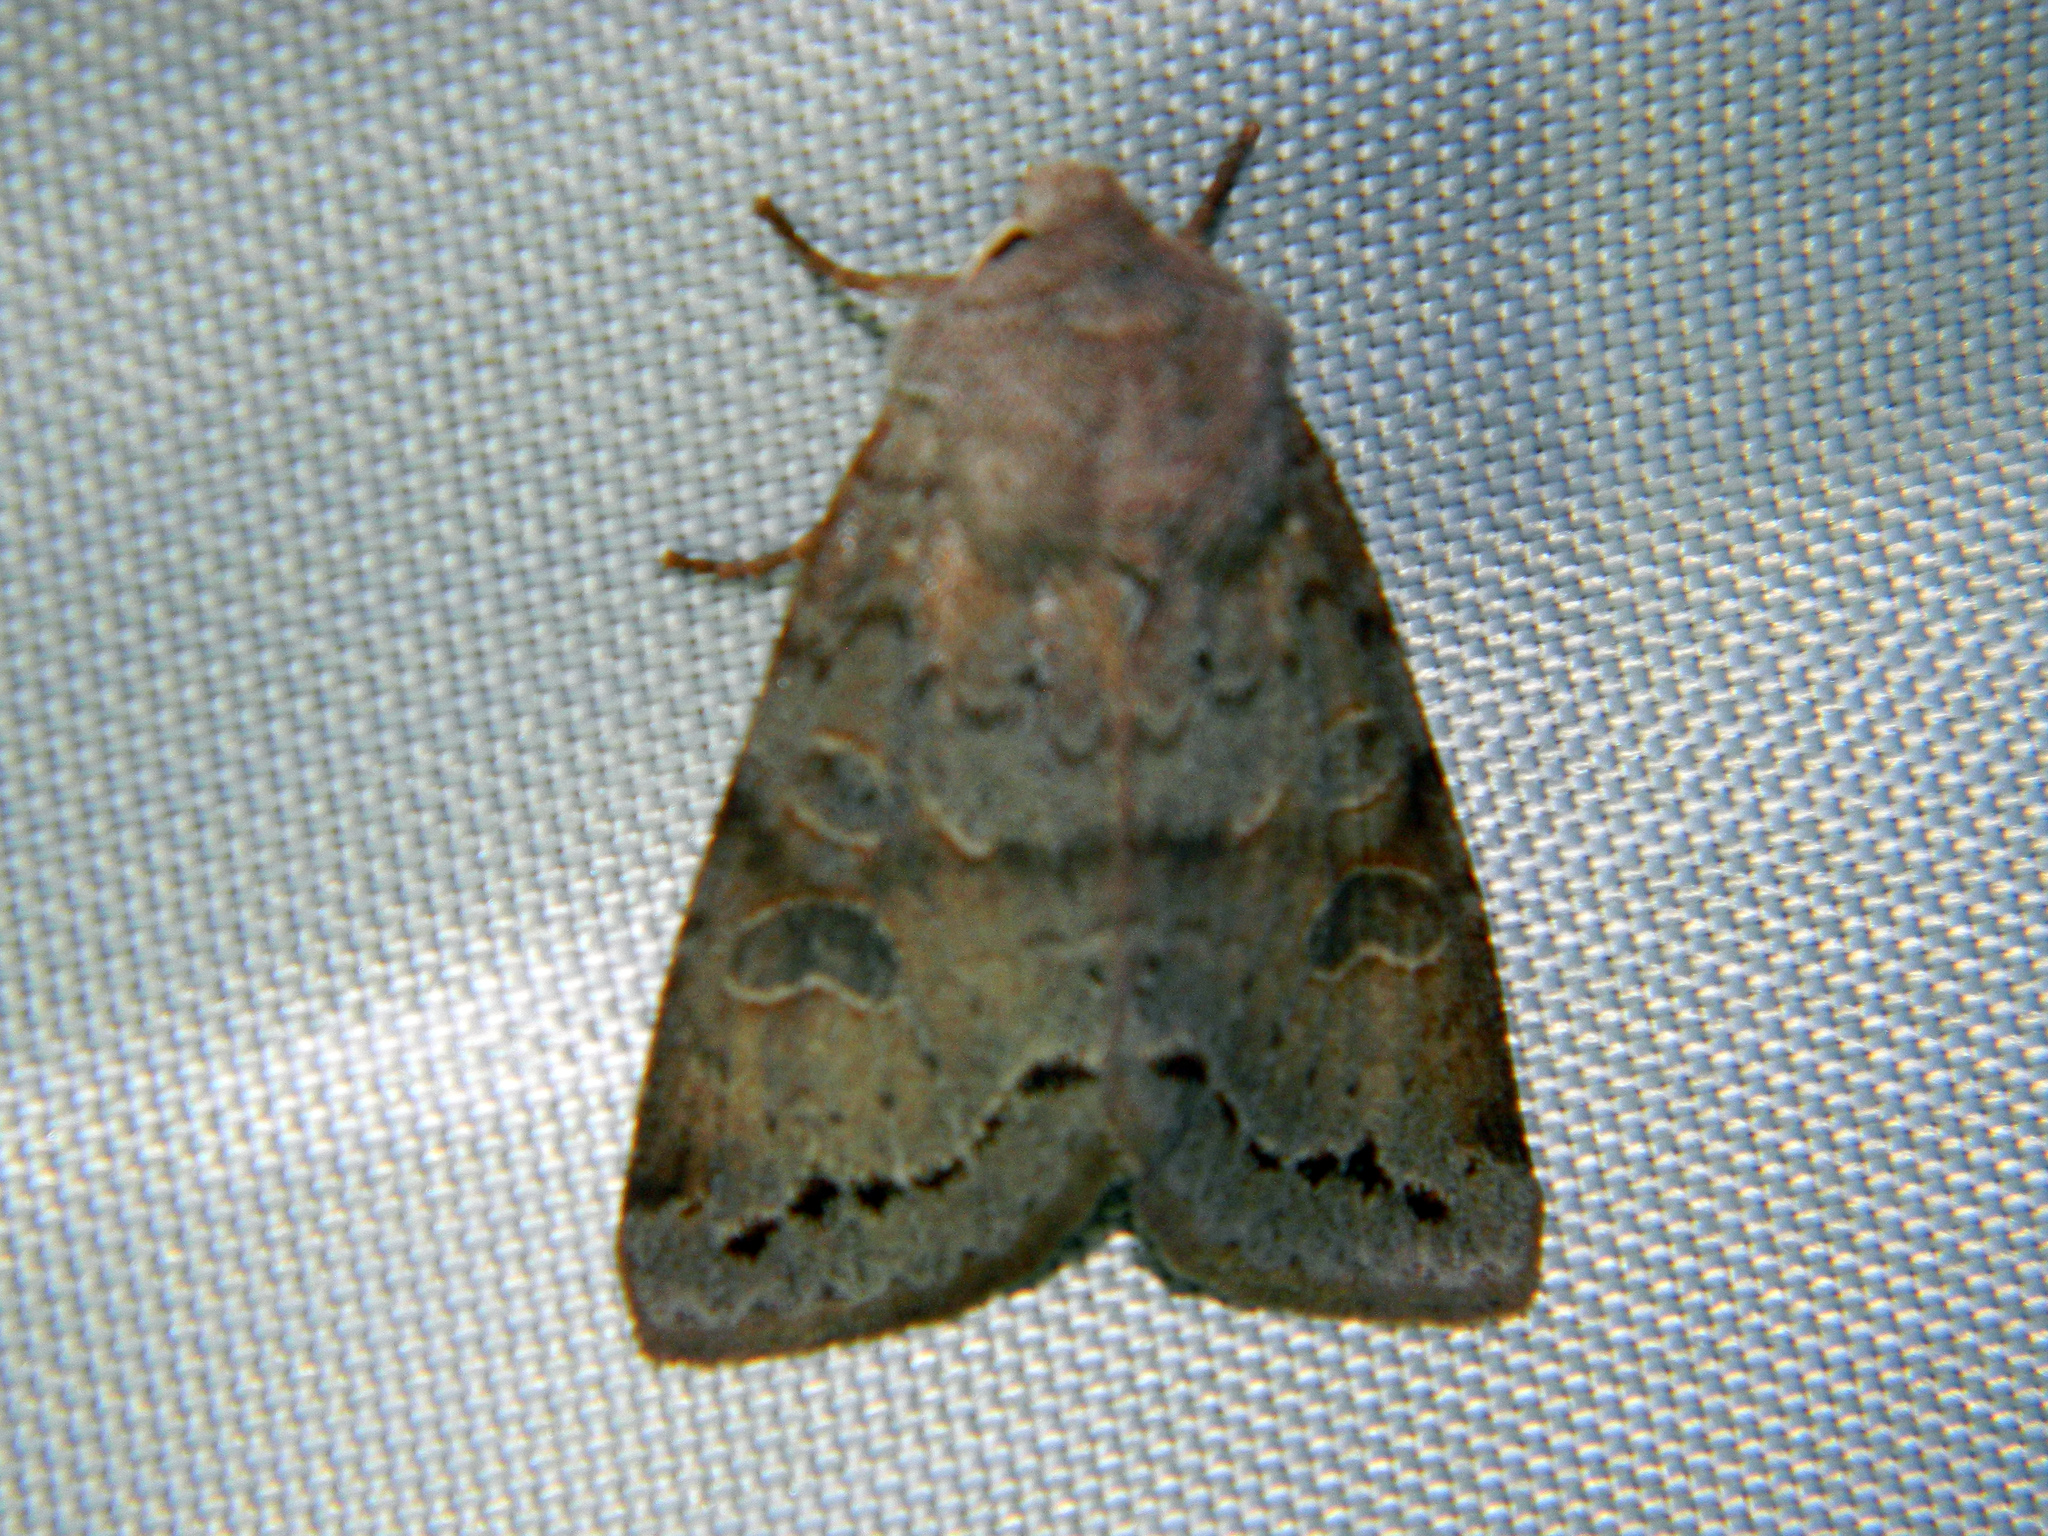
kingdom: Animalia
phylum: Arthropoda
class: Insecta
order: Lepidoptera
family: Noctuidae
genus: Orthosia
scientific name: Orthosia revicta
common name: Rusty whitesided caterpillar
